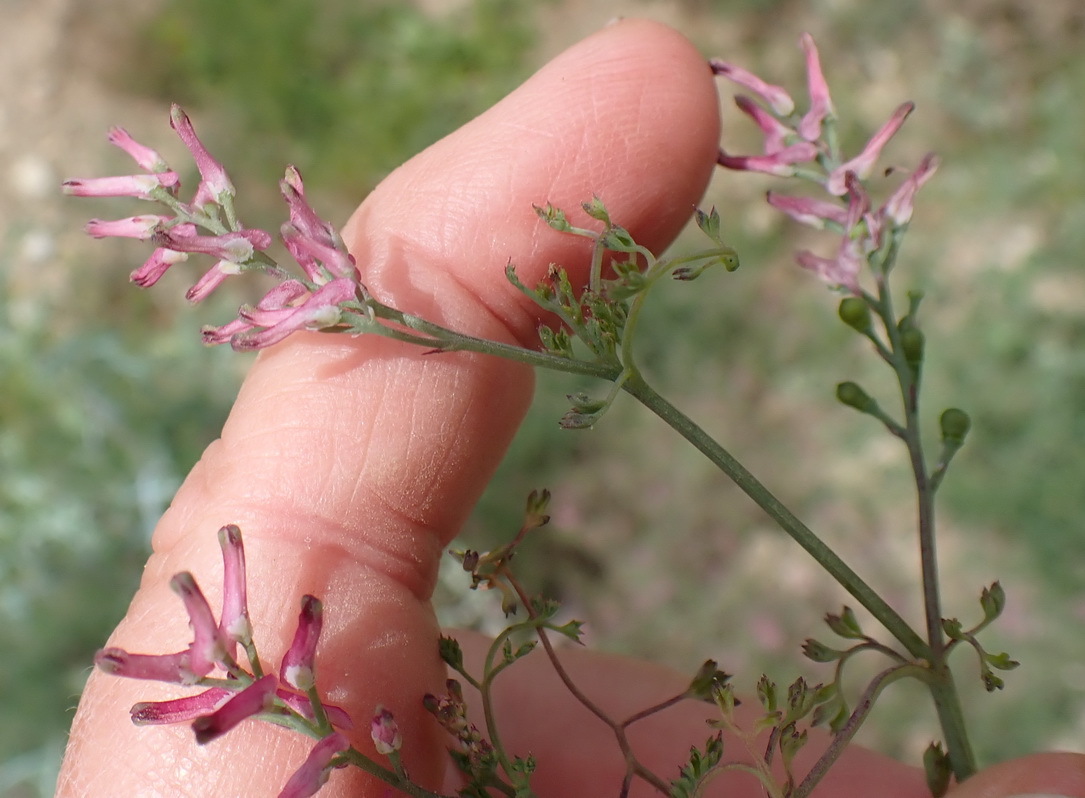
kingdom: Plantae
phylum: Tracheophyta
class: Magnoliopsida
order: Ranunculales
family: Papaveraceae
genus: Fumaria
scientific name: Fumaria muralis
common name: Common ramping-fumitory
